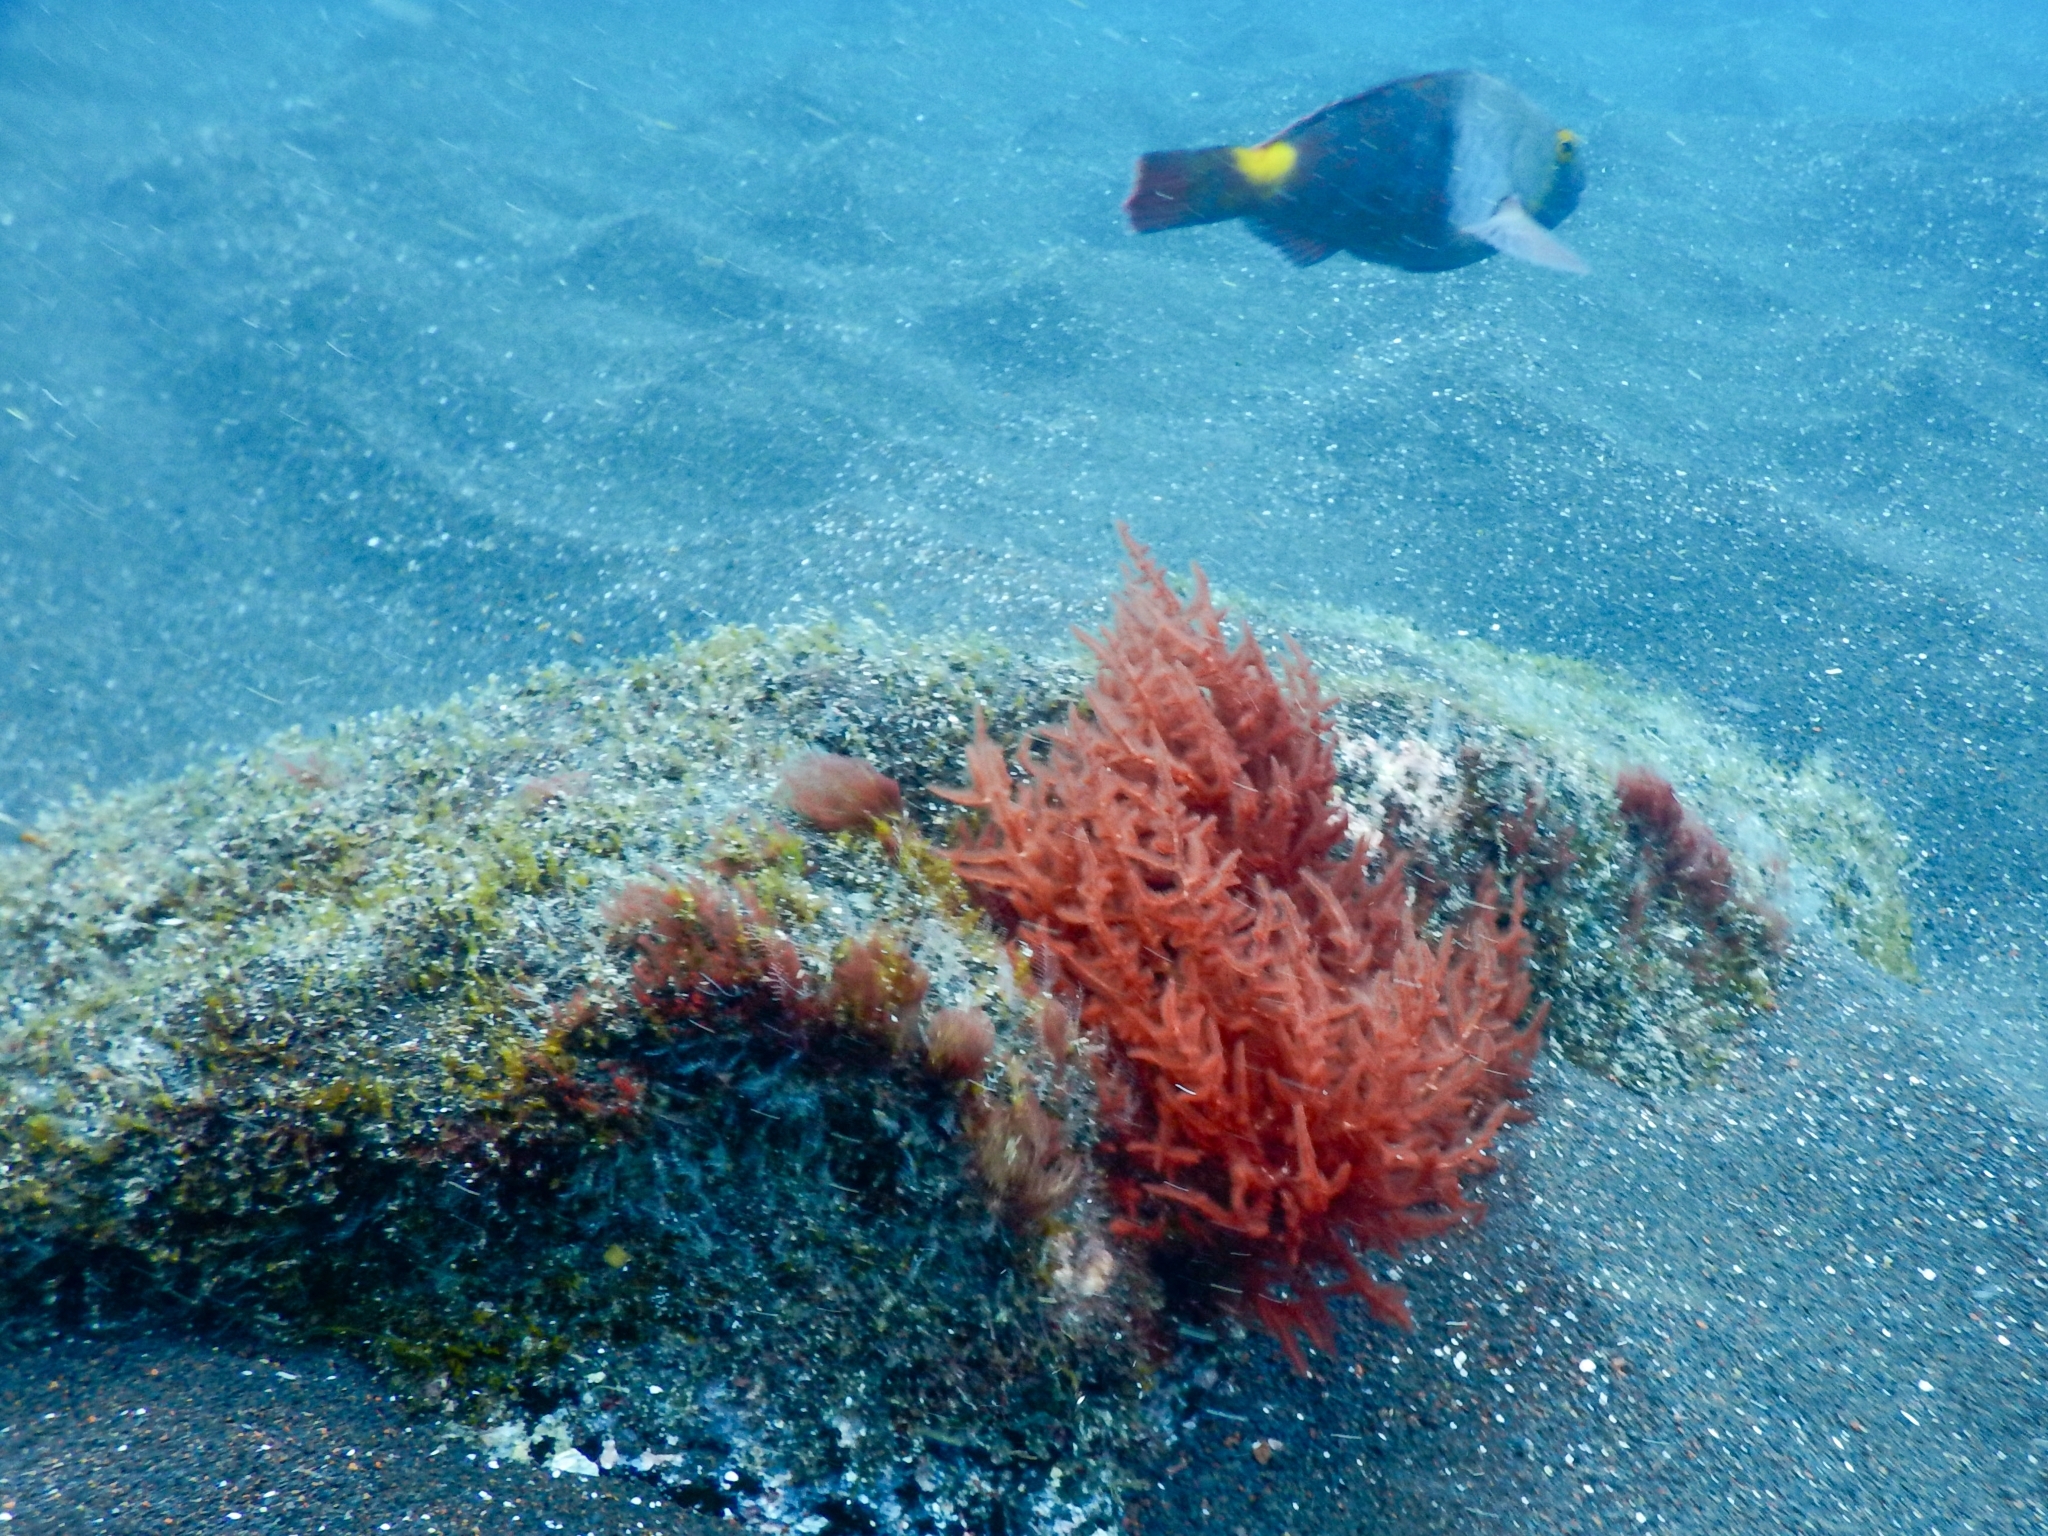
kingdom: Animalia
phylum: Chordata
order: Perciformes
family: Scaridae
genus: Sparisoma
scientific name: Sparisoma cretense
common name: Parrotfish
